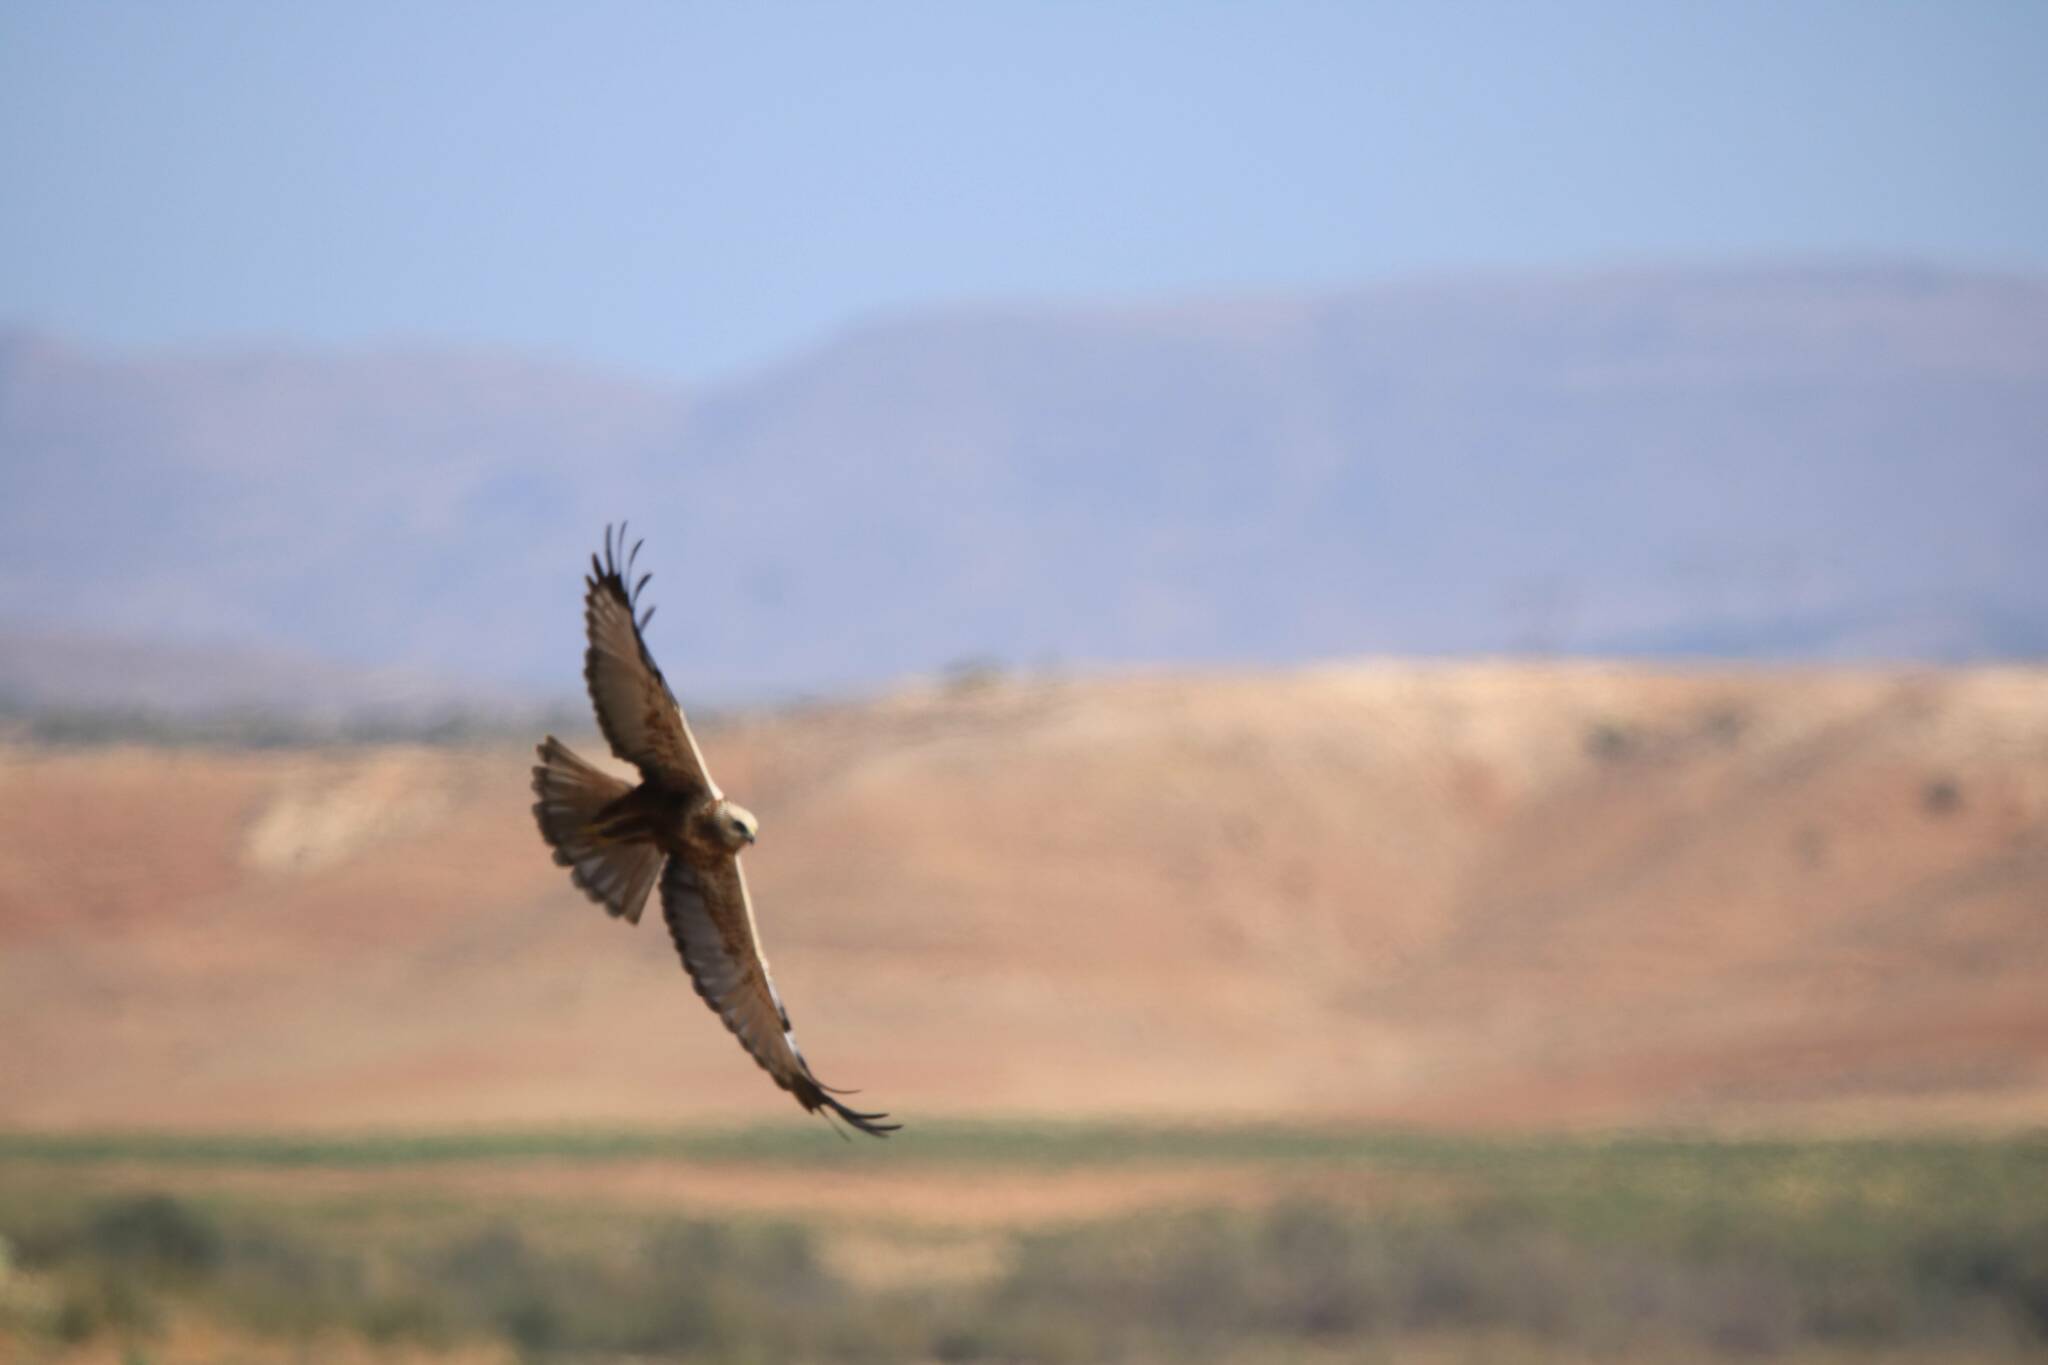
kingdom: Animalia
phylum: Chordata
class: Aves
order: Accipitriformes
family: Accipitridae
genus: Circus
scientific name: Circus aeruginosus
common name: Western marsh harrier
